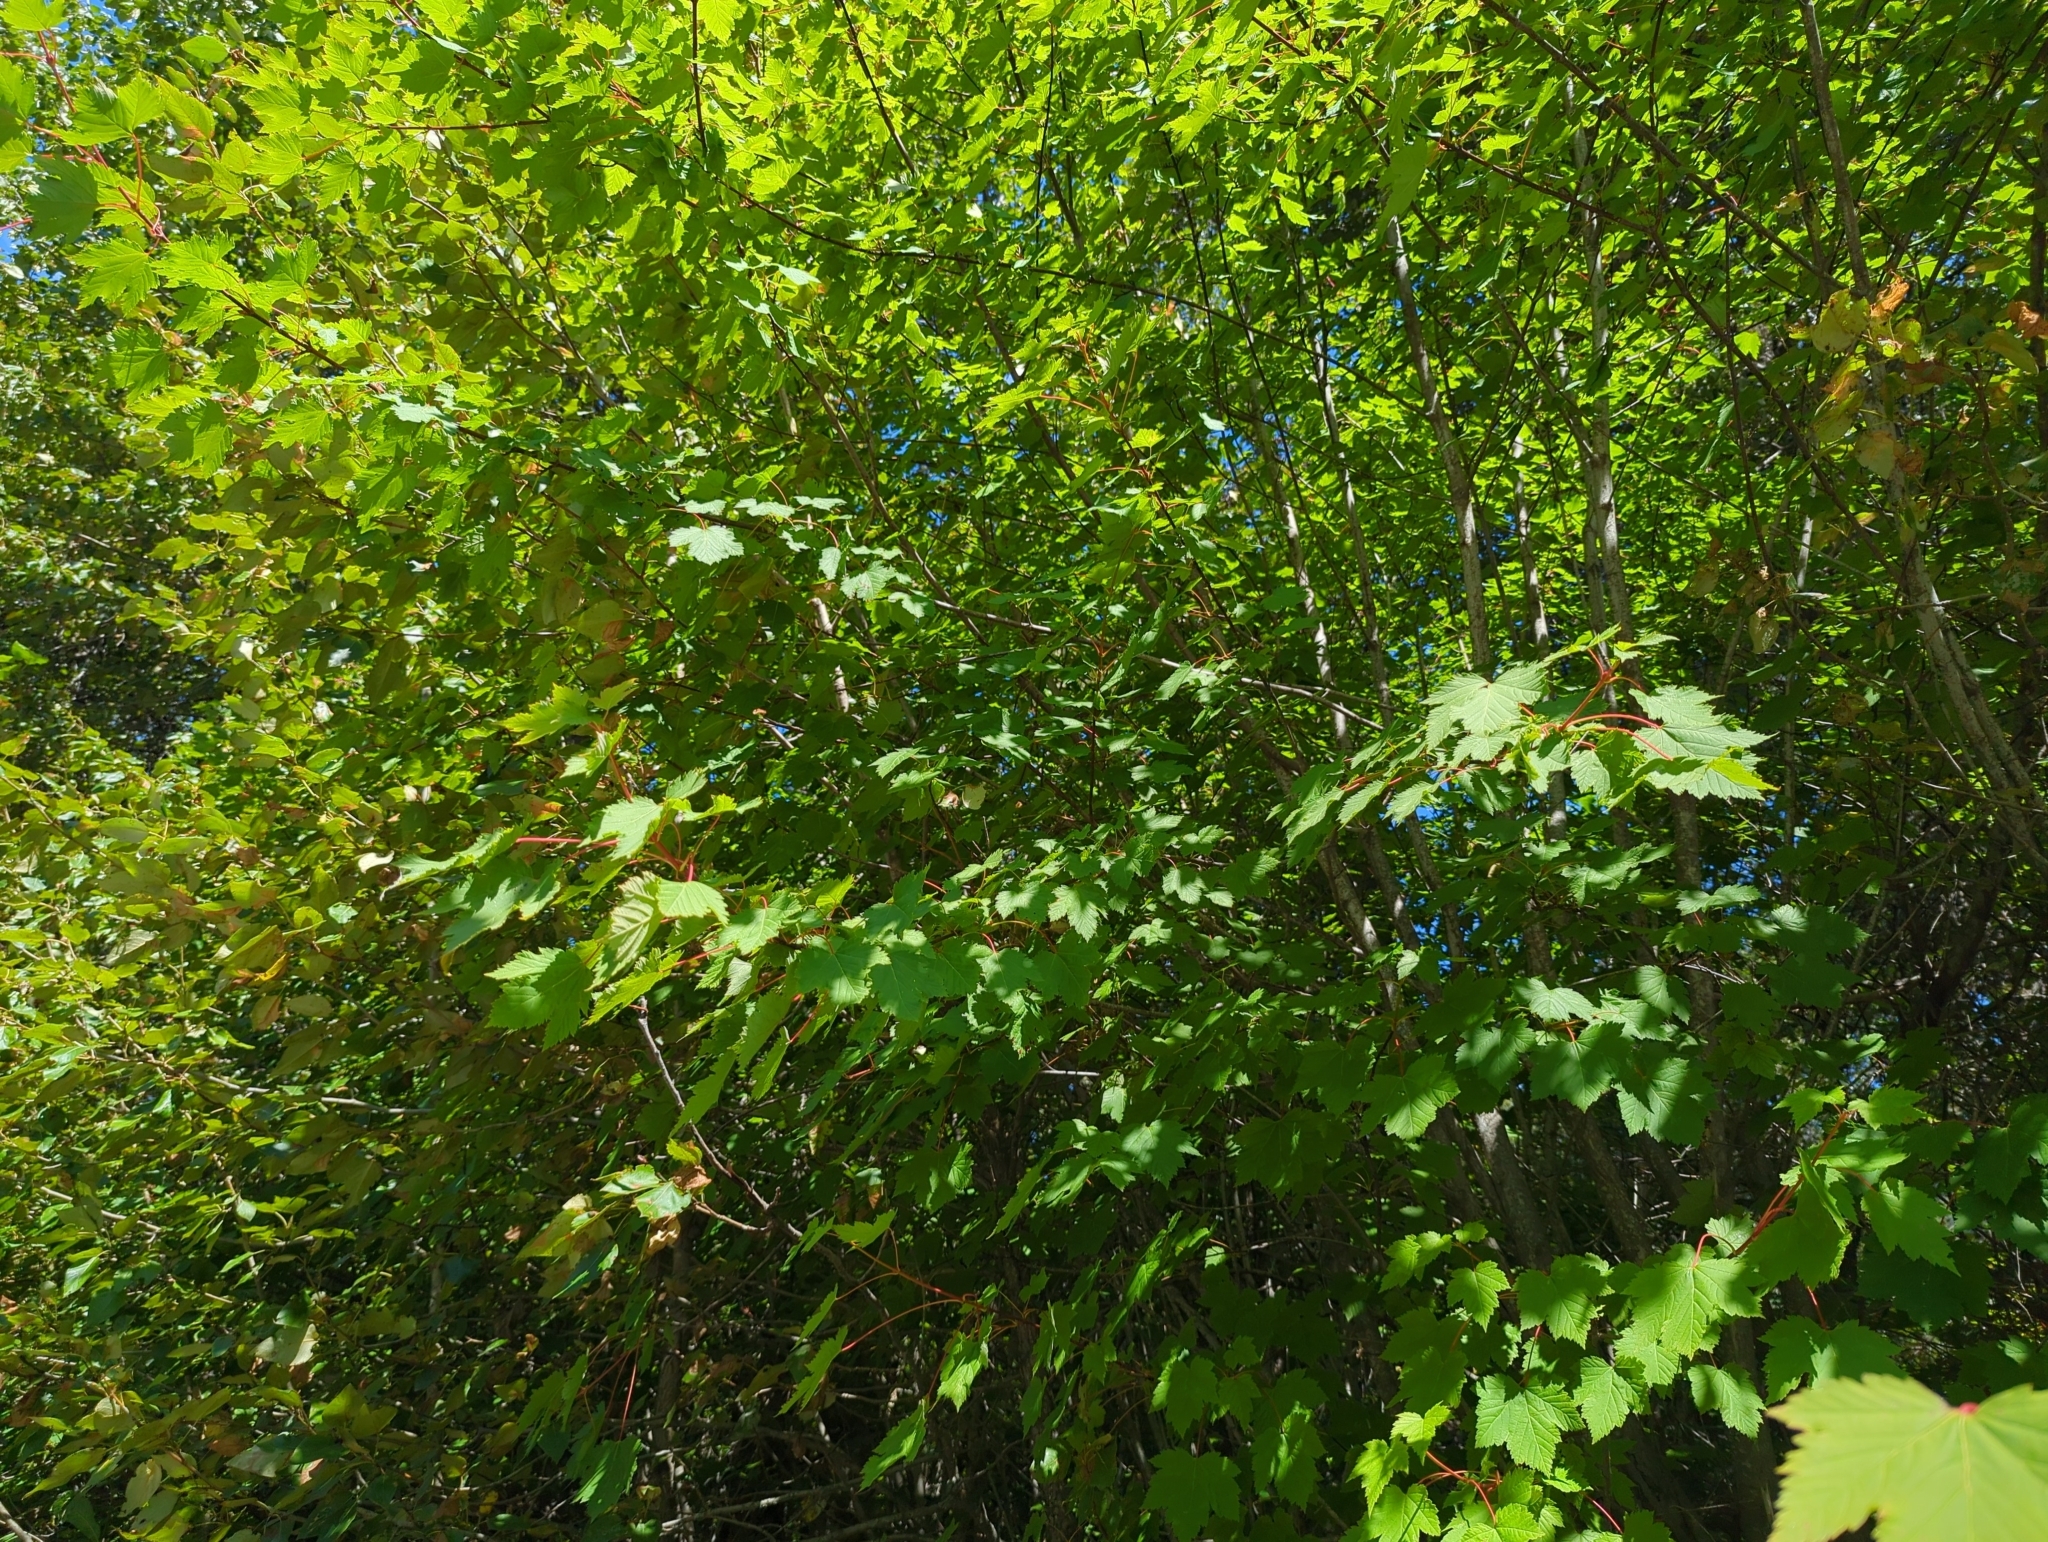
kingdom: Plantae
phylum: Tracheophyta
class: Magnoliopsida
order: Sapindales
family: Sapindaceae
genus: Acer
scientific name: Acer glabrum
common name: Rocky mountain maple
